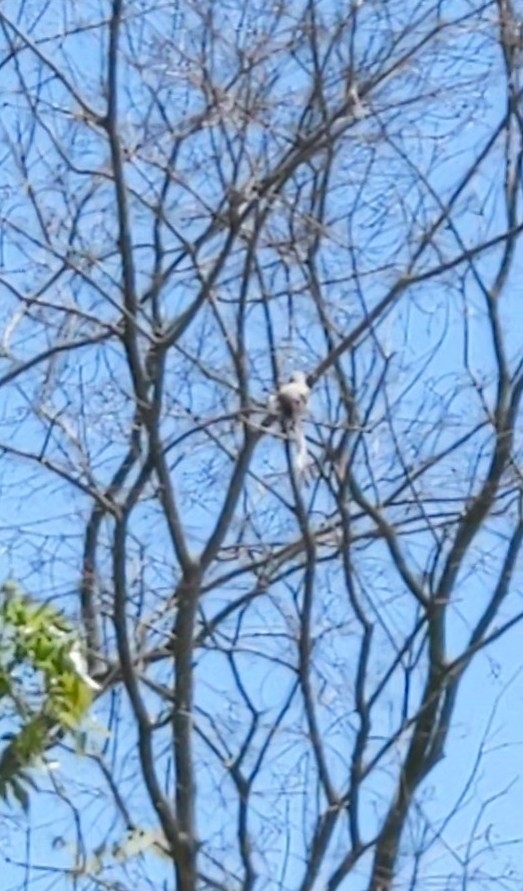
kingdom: Animalia
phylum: Chordata
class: Aves
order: Passeriformes
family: Tyrannidae
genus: Tyrannus
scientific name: Tyrannus forficatus
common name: Scissor-tailed flycatcher
